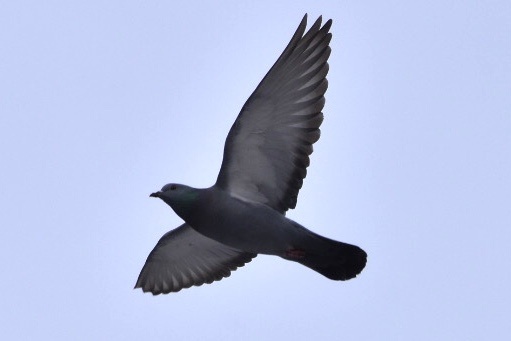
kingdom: Animalia
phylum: Chordata
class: Aves
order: Columbiformes
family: Columbidae
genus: Columba
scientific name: Columba livia
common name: Rock pigeon
